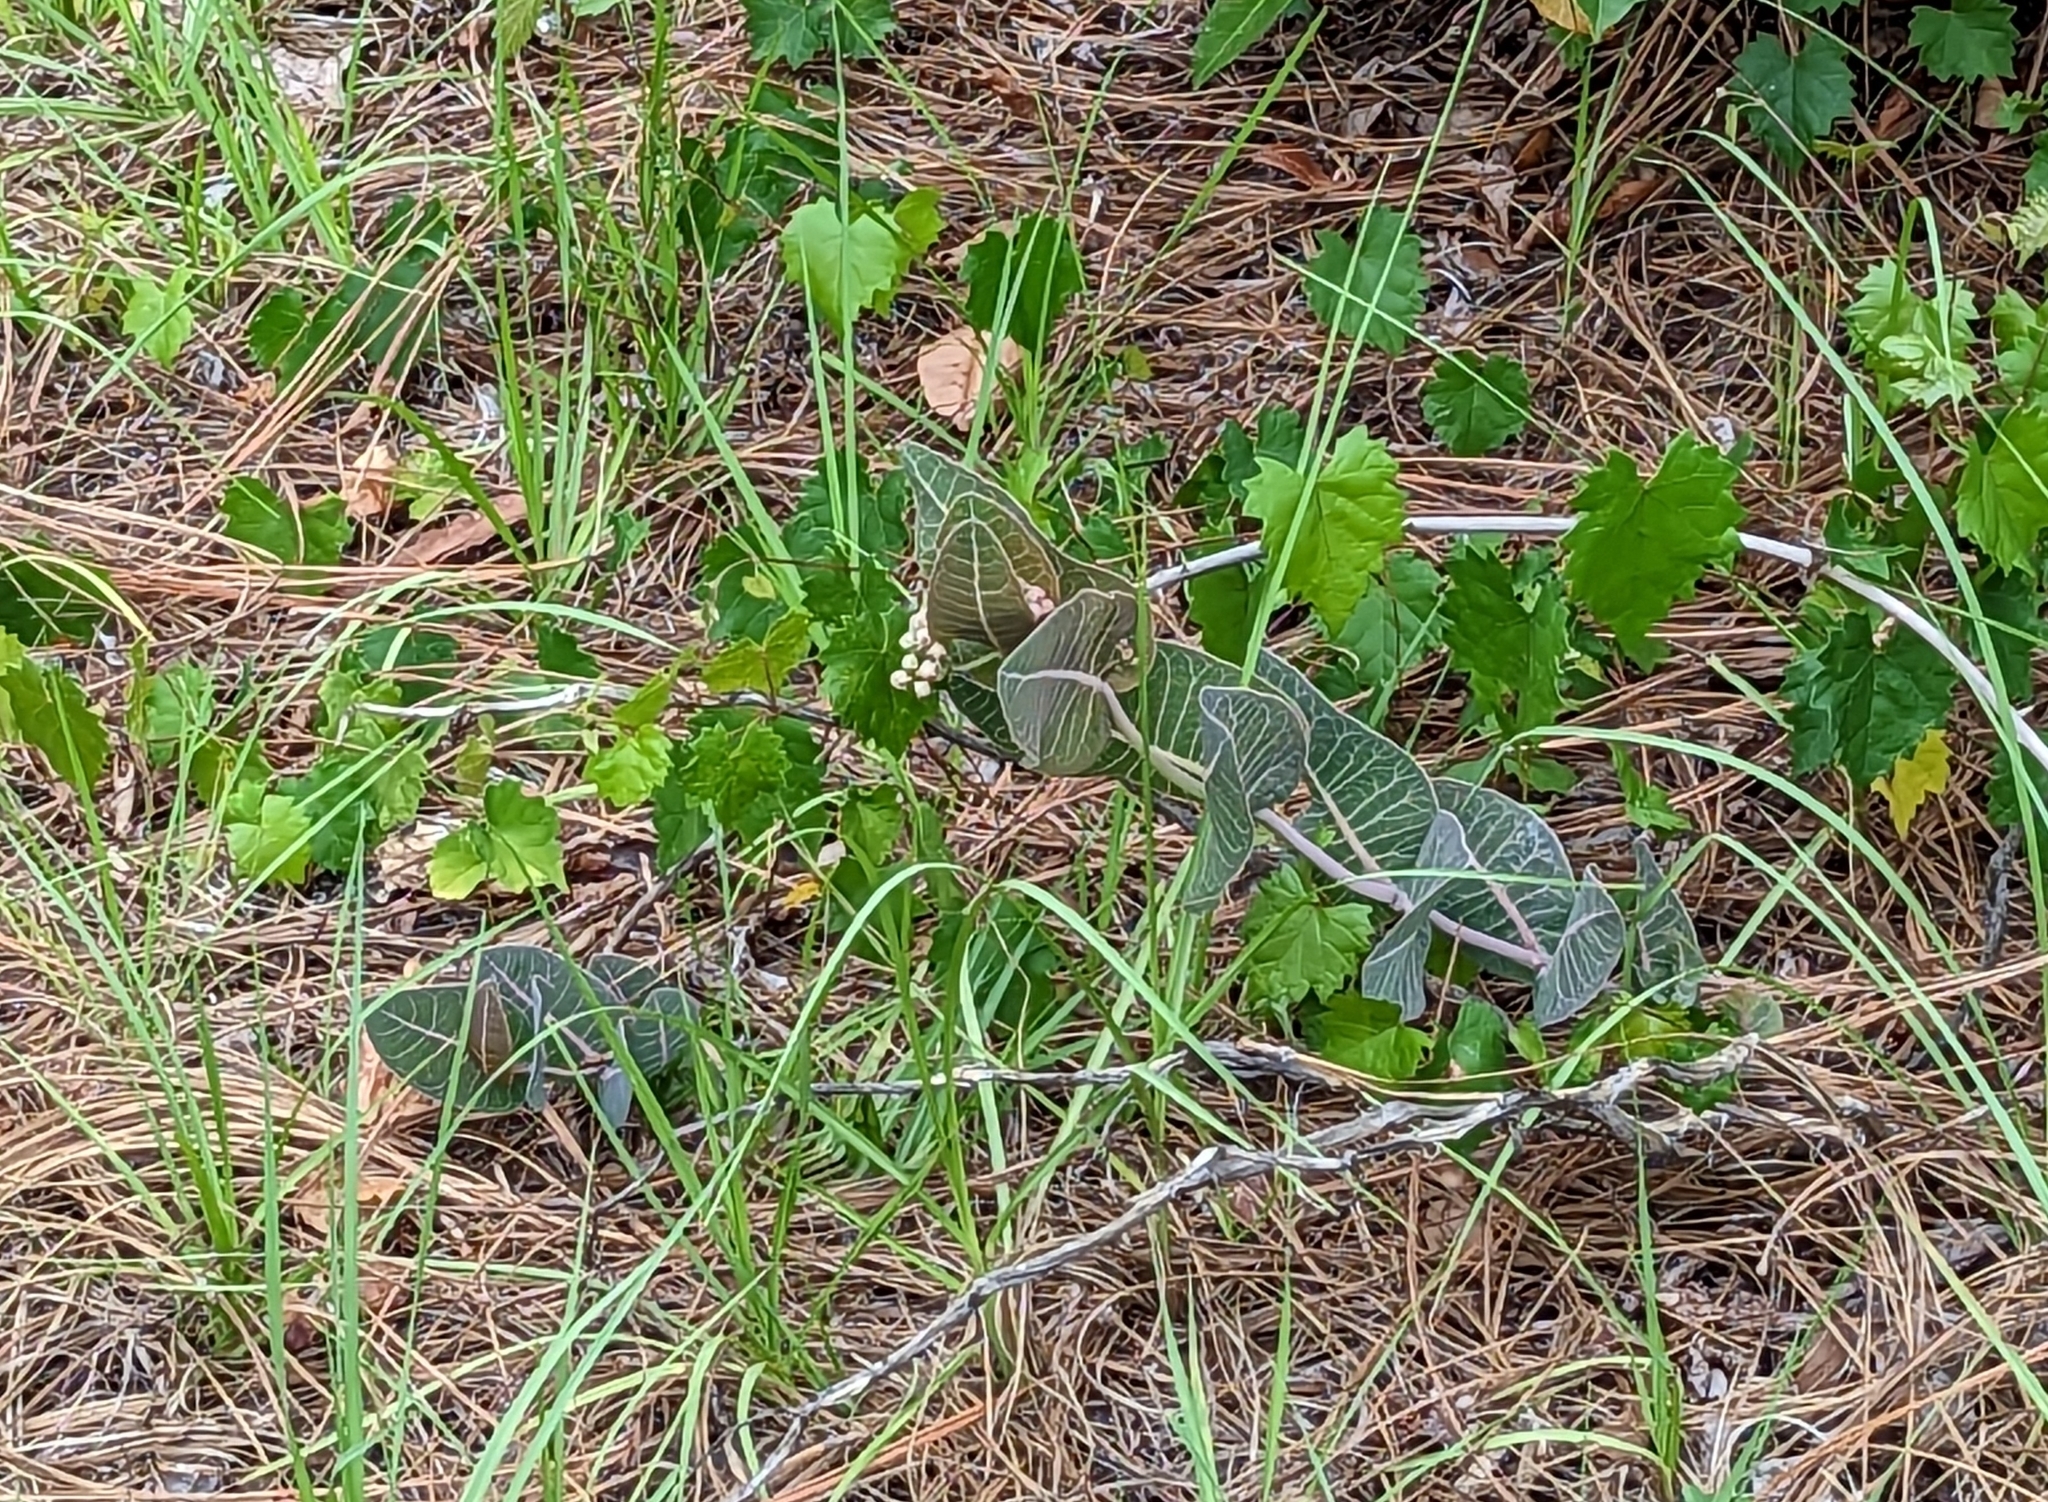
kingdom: Plantae
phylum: Tracheophyta
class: Magnoliopsida
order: Gentianales
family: Apocynaceae
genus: Asclepias
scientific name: Asclepias humistrata
